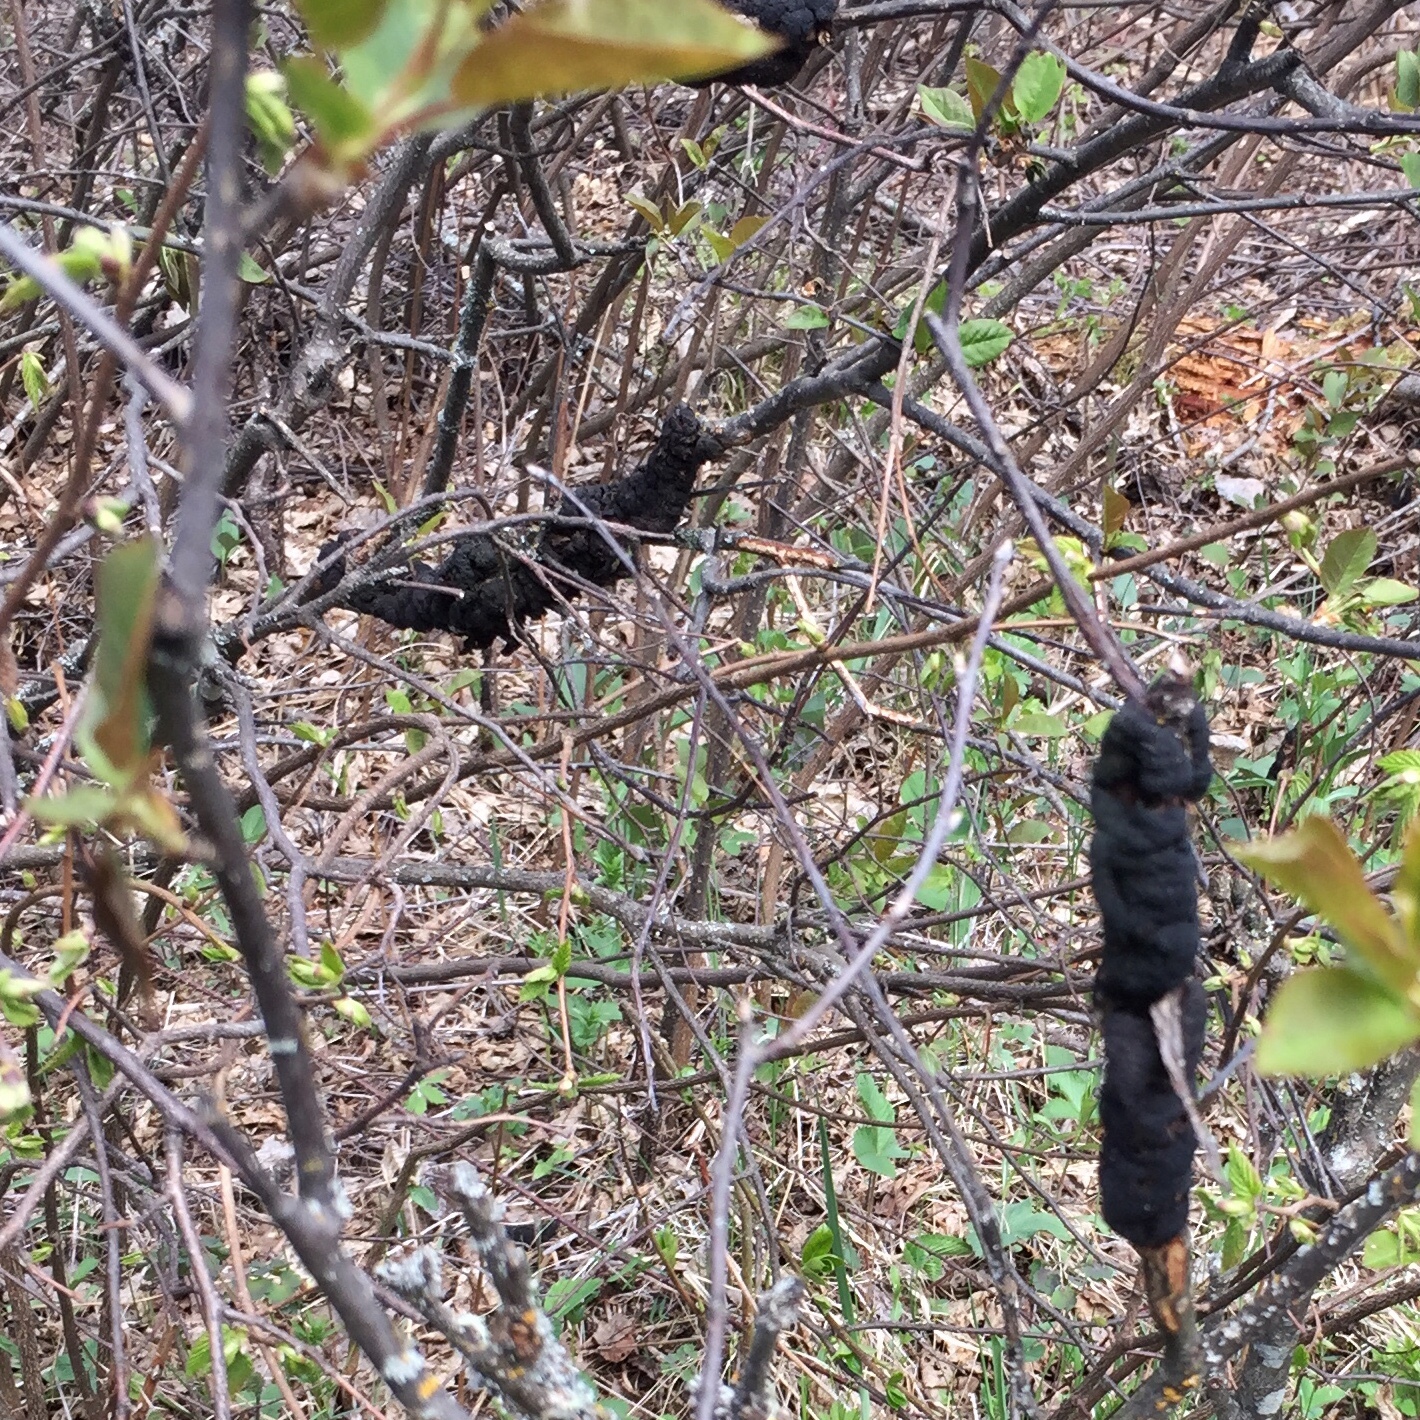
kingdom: Fungi
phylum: Ascomycota
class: Dothideomycetes
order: Venturiales
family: Venturiaceae
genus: Apiosporina
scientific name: Apiosporina morbosa
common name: Black knot
